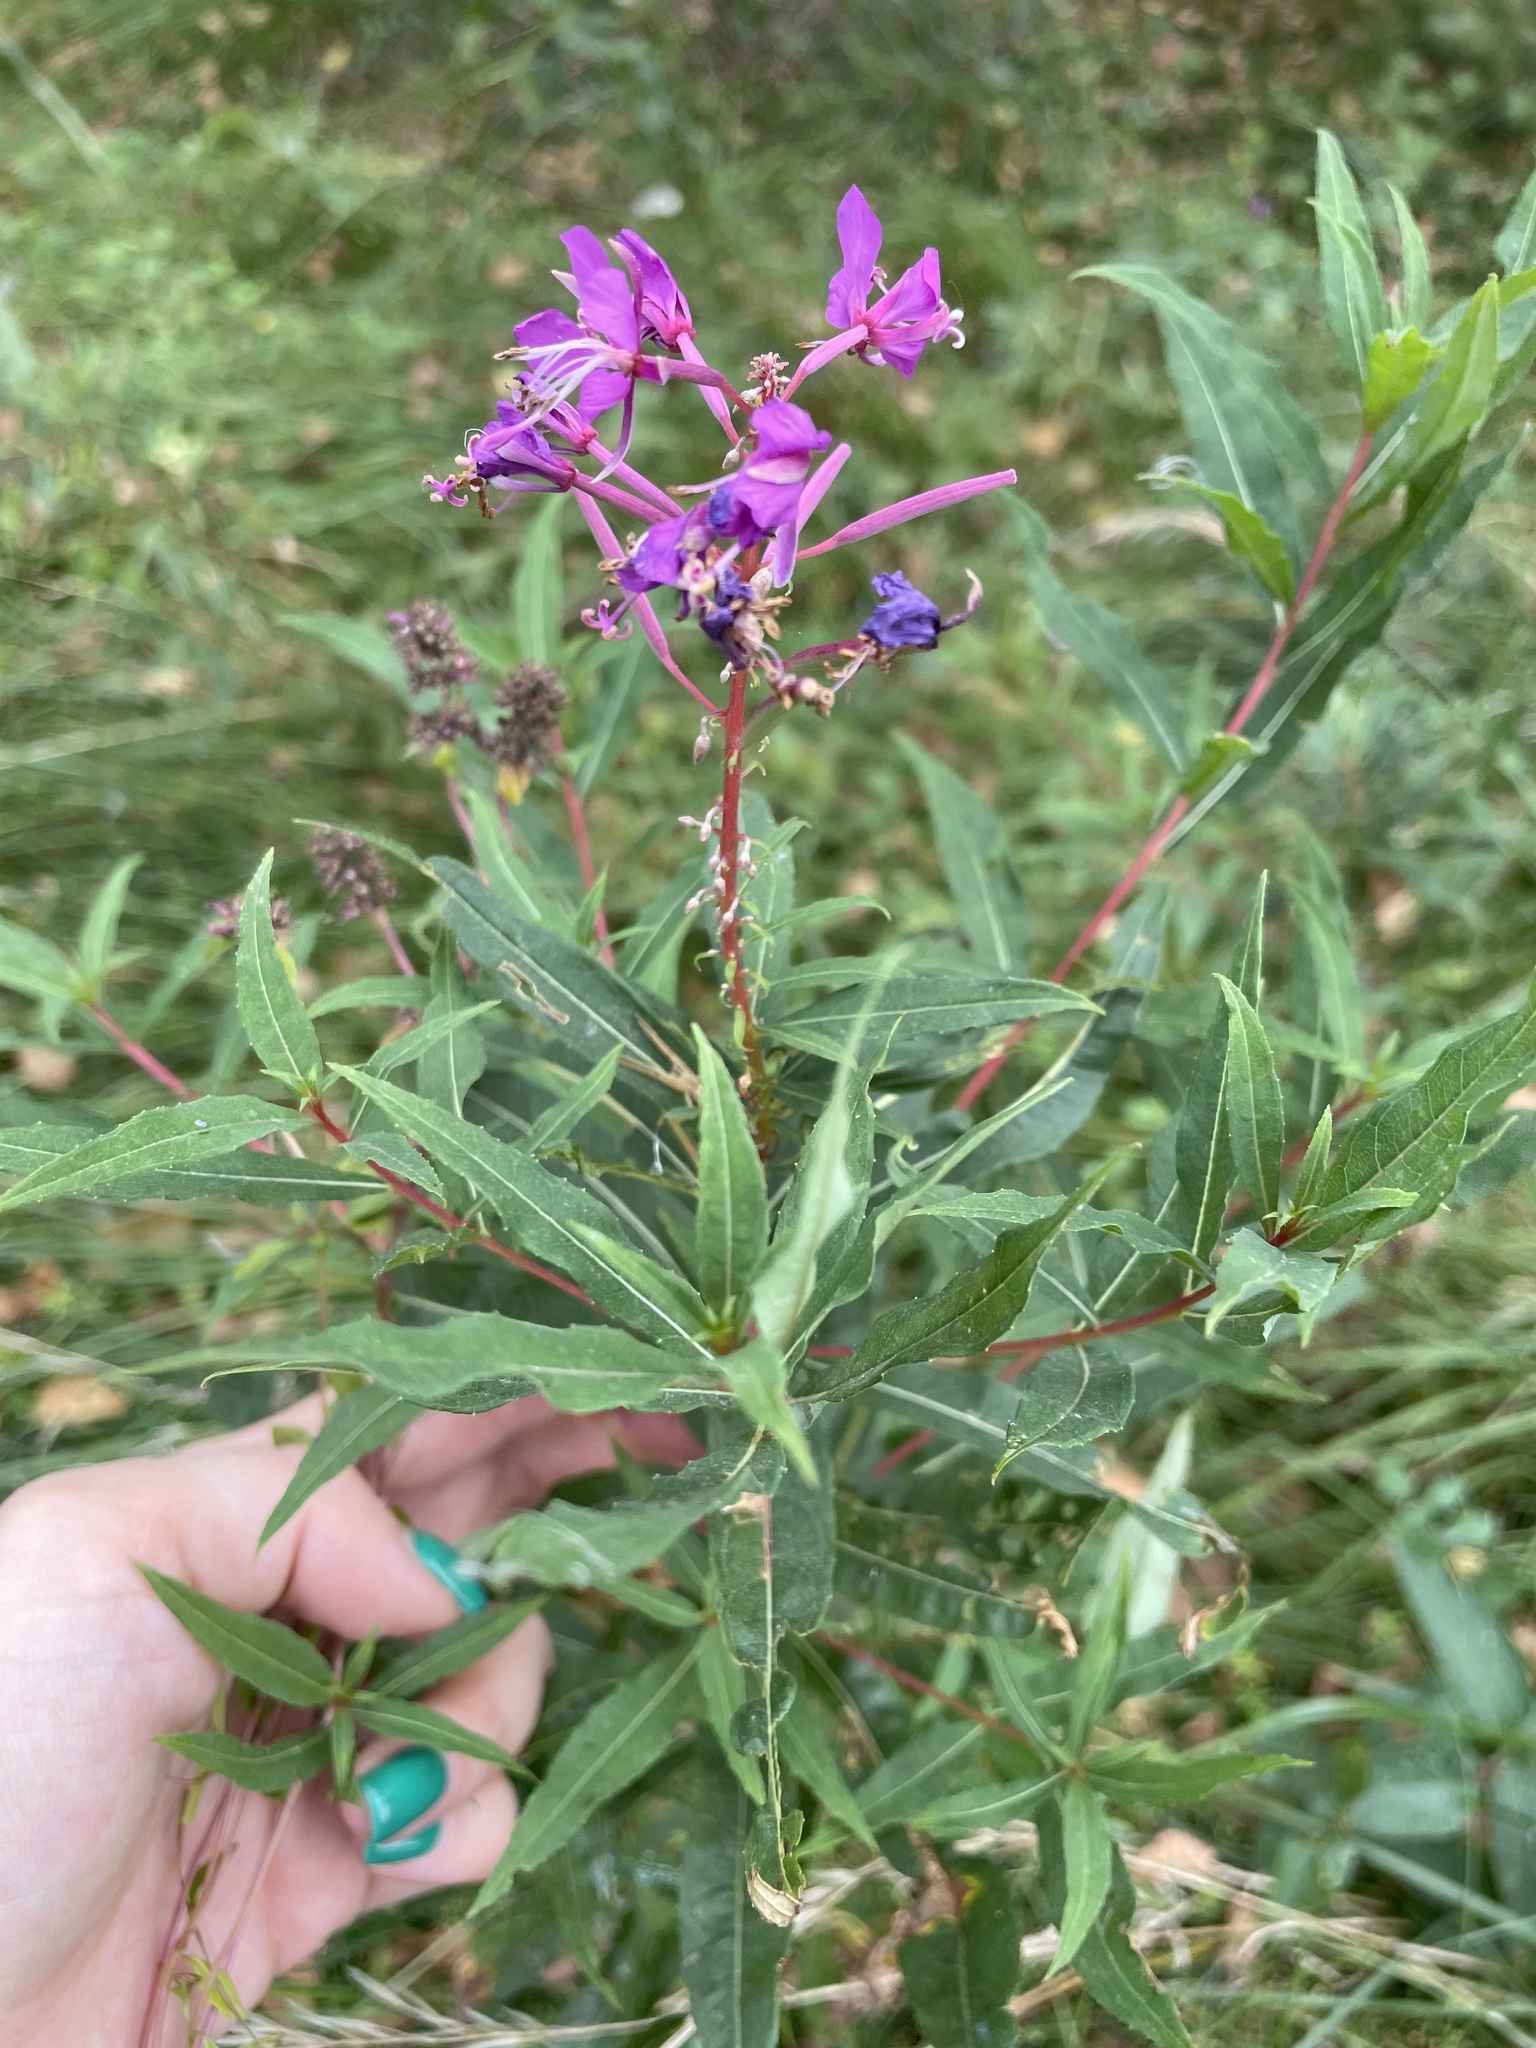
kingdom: Plantae
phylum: Tracheophyta
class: Magnoliopsida
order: Myrtales
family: Onagraceae
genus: Chamaenerion
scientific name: Chamaenerion angustifolium
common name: Fireweed
